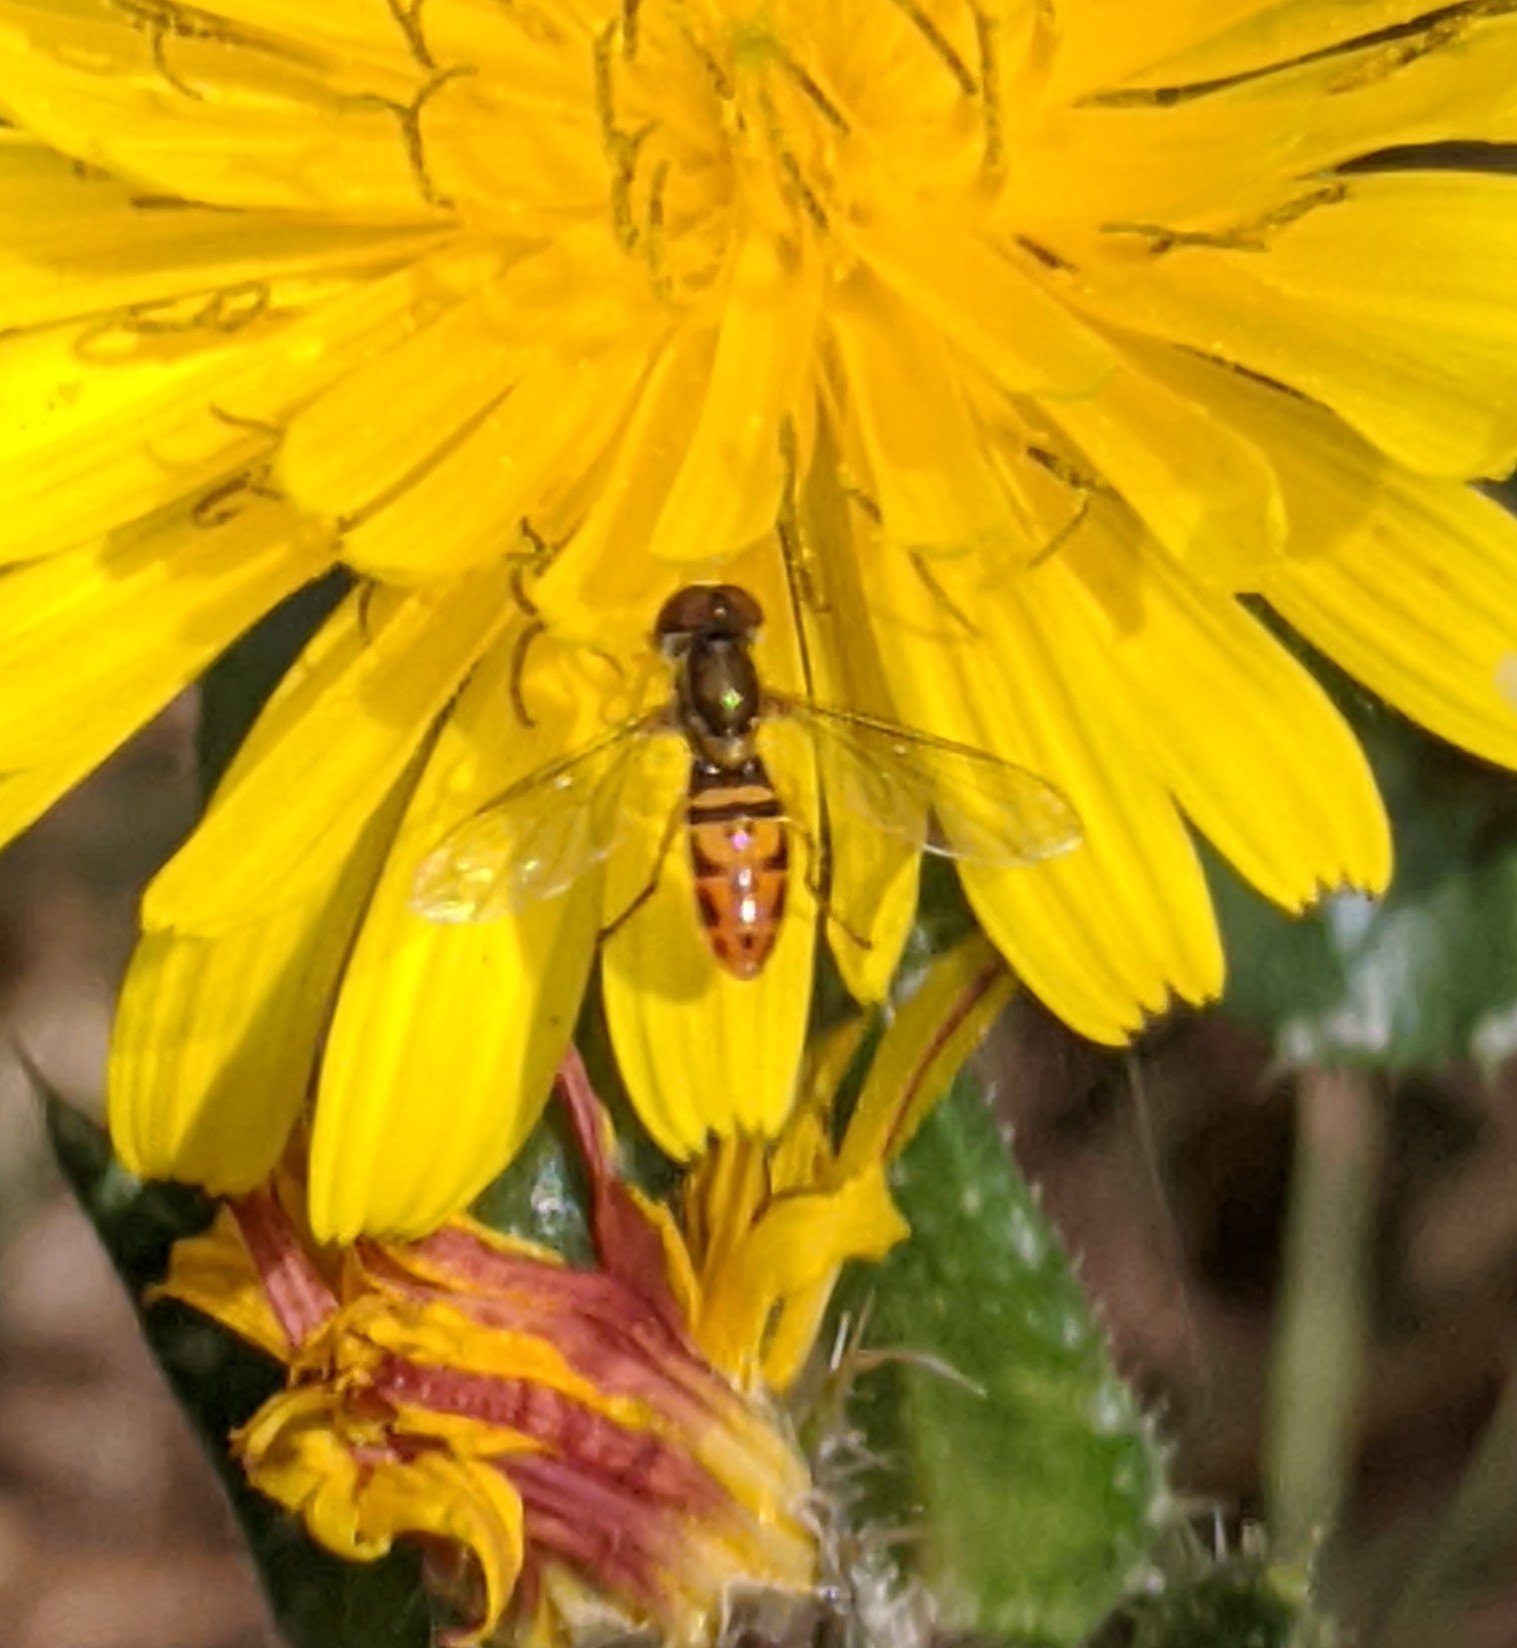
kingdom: Animalia
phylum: Arthropoda
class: Insecta
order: Diptera
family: Syrphidae
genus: Toxomerus
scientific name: Toxomerus marginatus
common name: Syrphid fly
